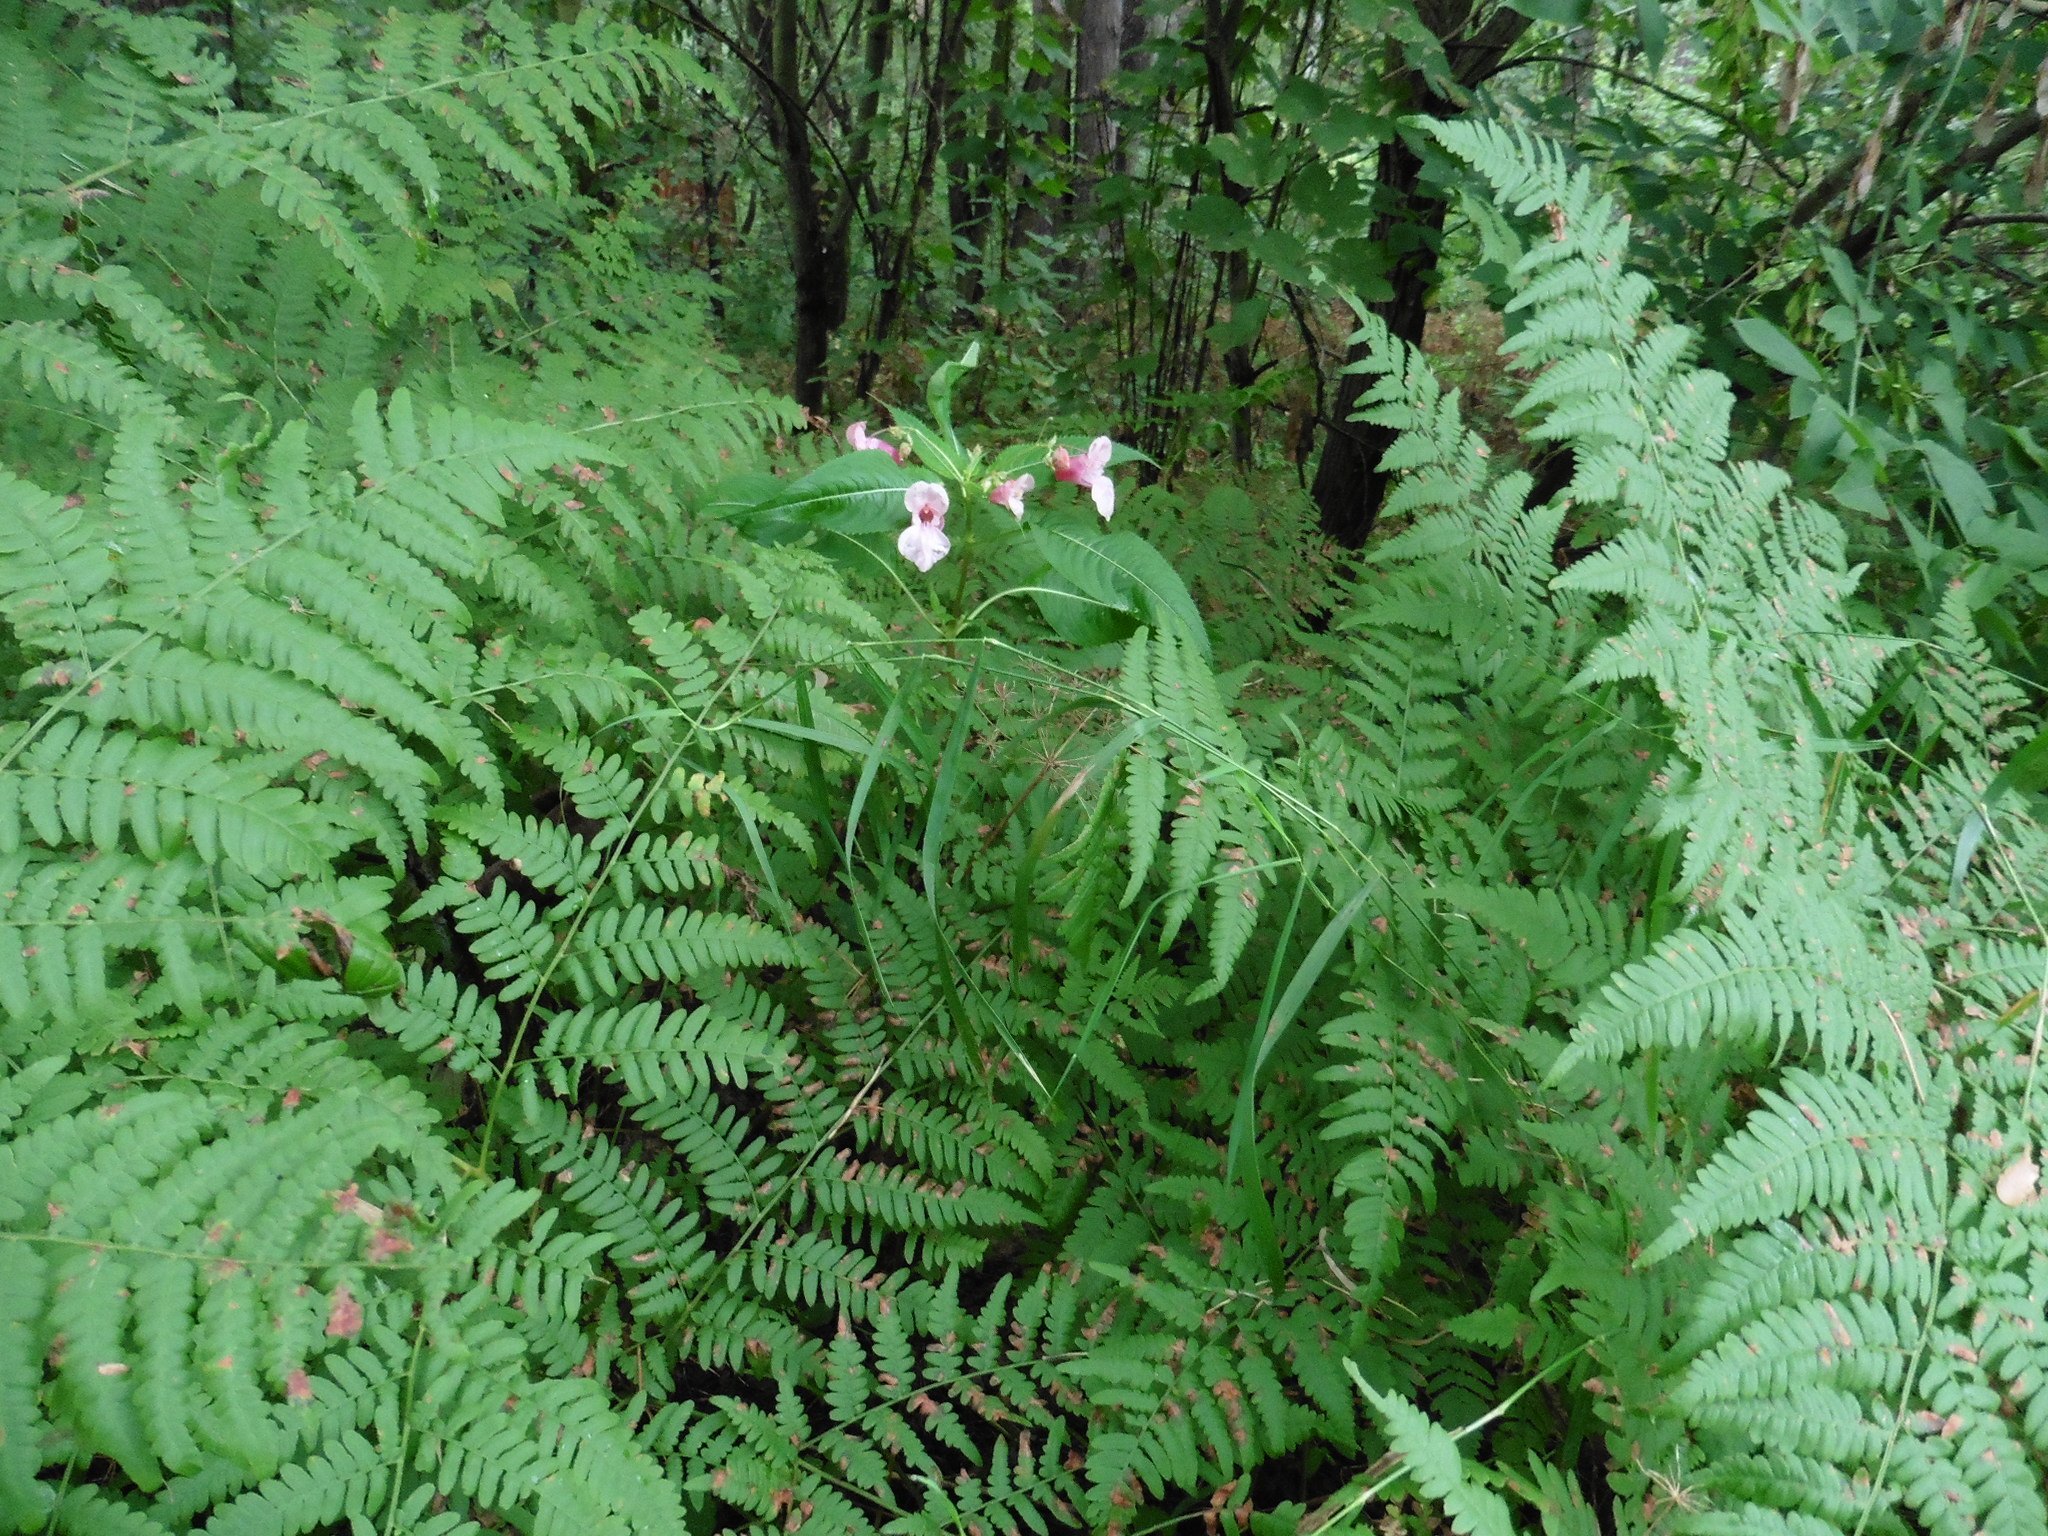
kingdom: Plantae
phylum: Tracheophyta
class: Magnoliopsida
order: Ericales
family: Balsaminaceae
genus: Impatiens
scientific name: Impatiens glandulifera
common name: Himalayan balsam
